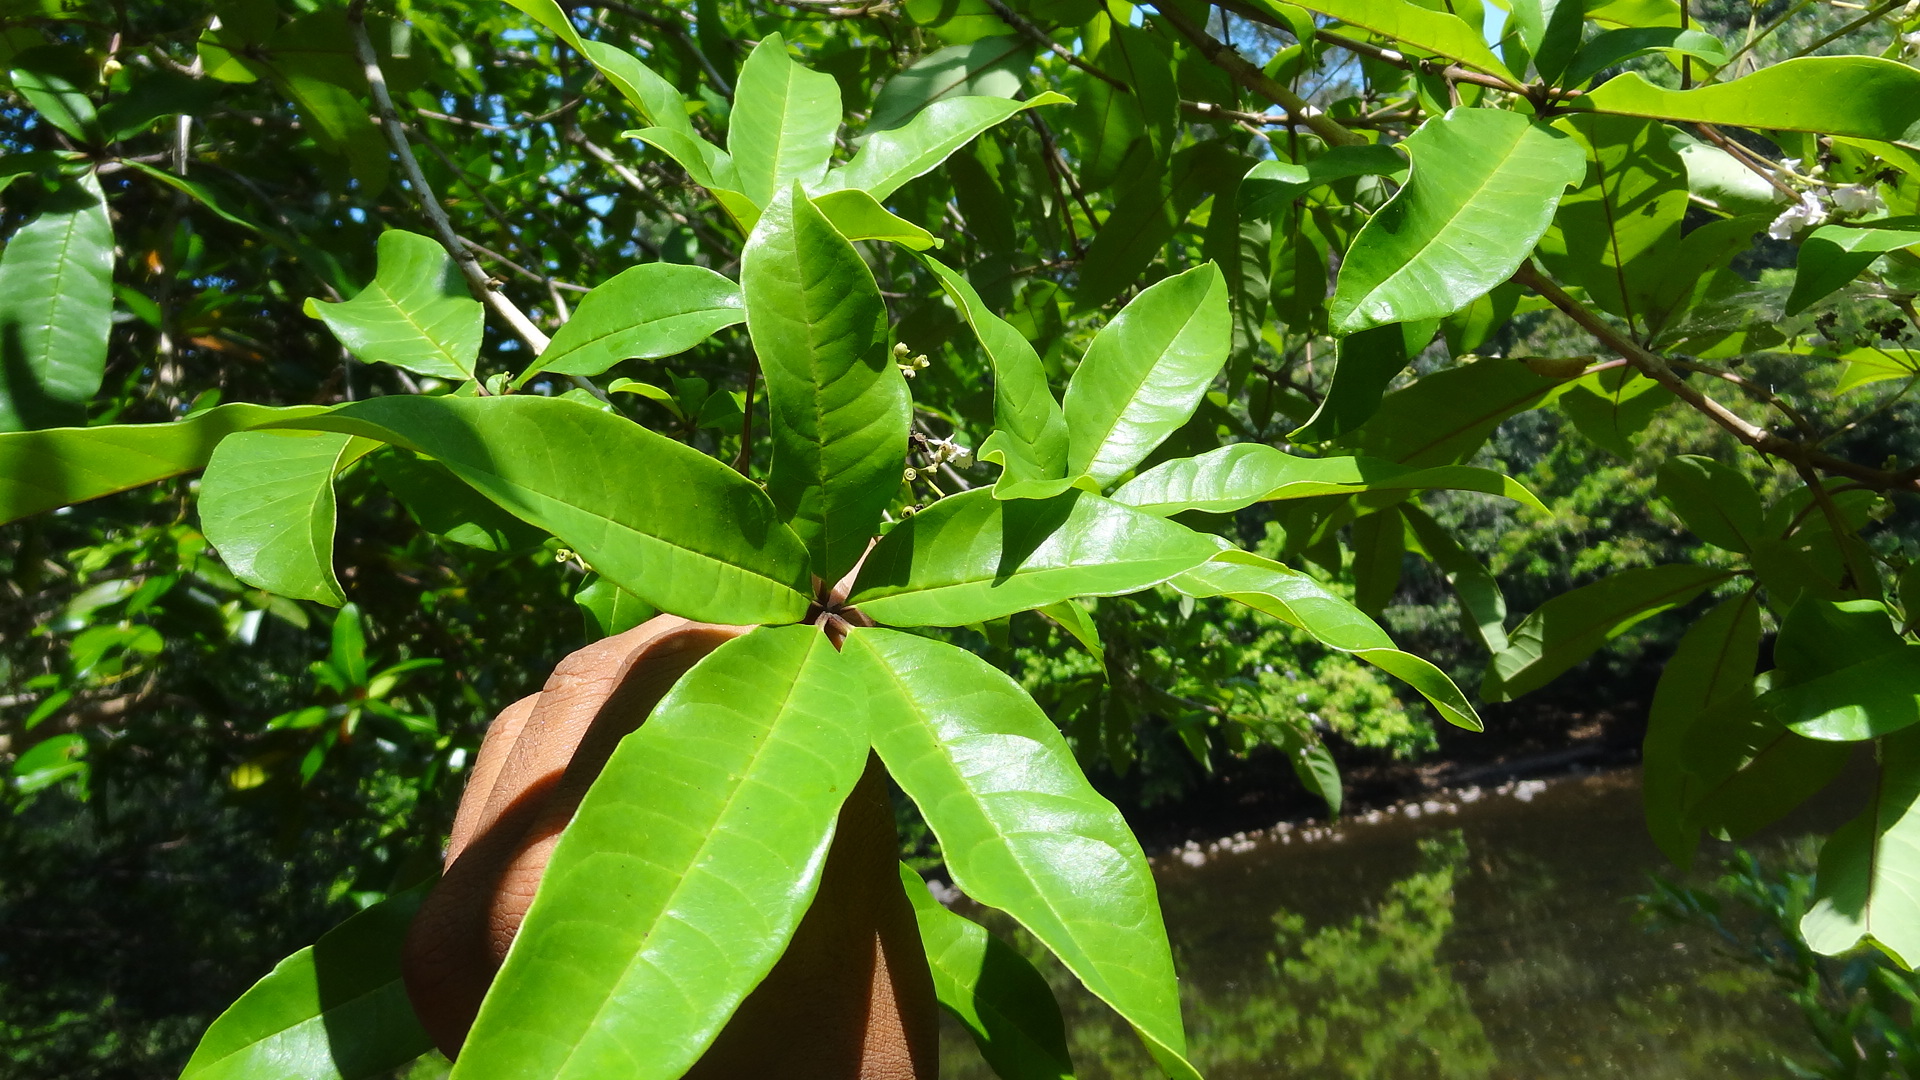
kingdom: Plantae
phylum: Tracheophyta
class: Magnoliopsida
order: Lamiales
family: Lamiaceae
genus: Vitex
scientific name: Vitex leucoxylon
